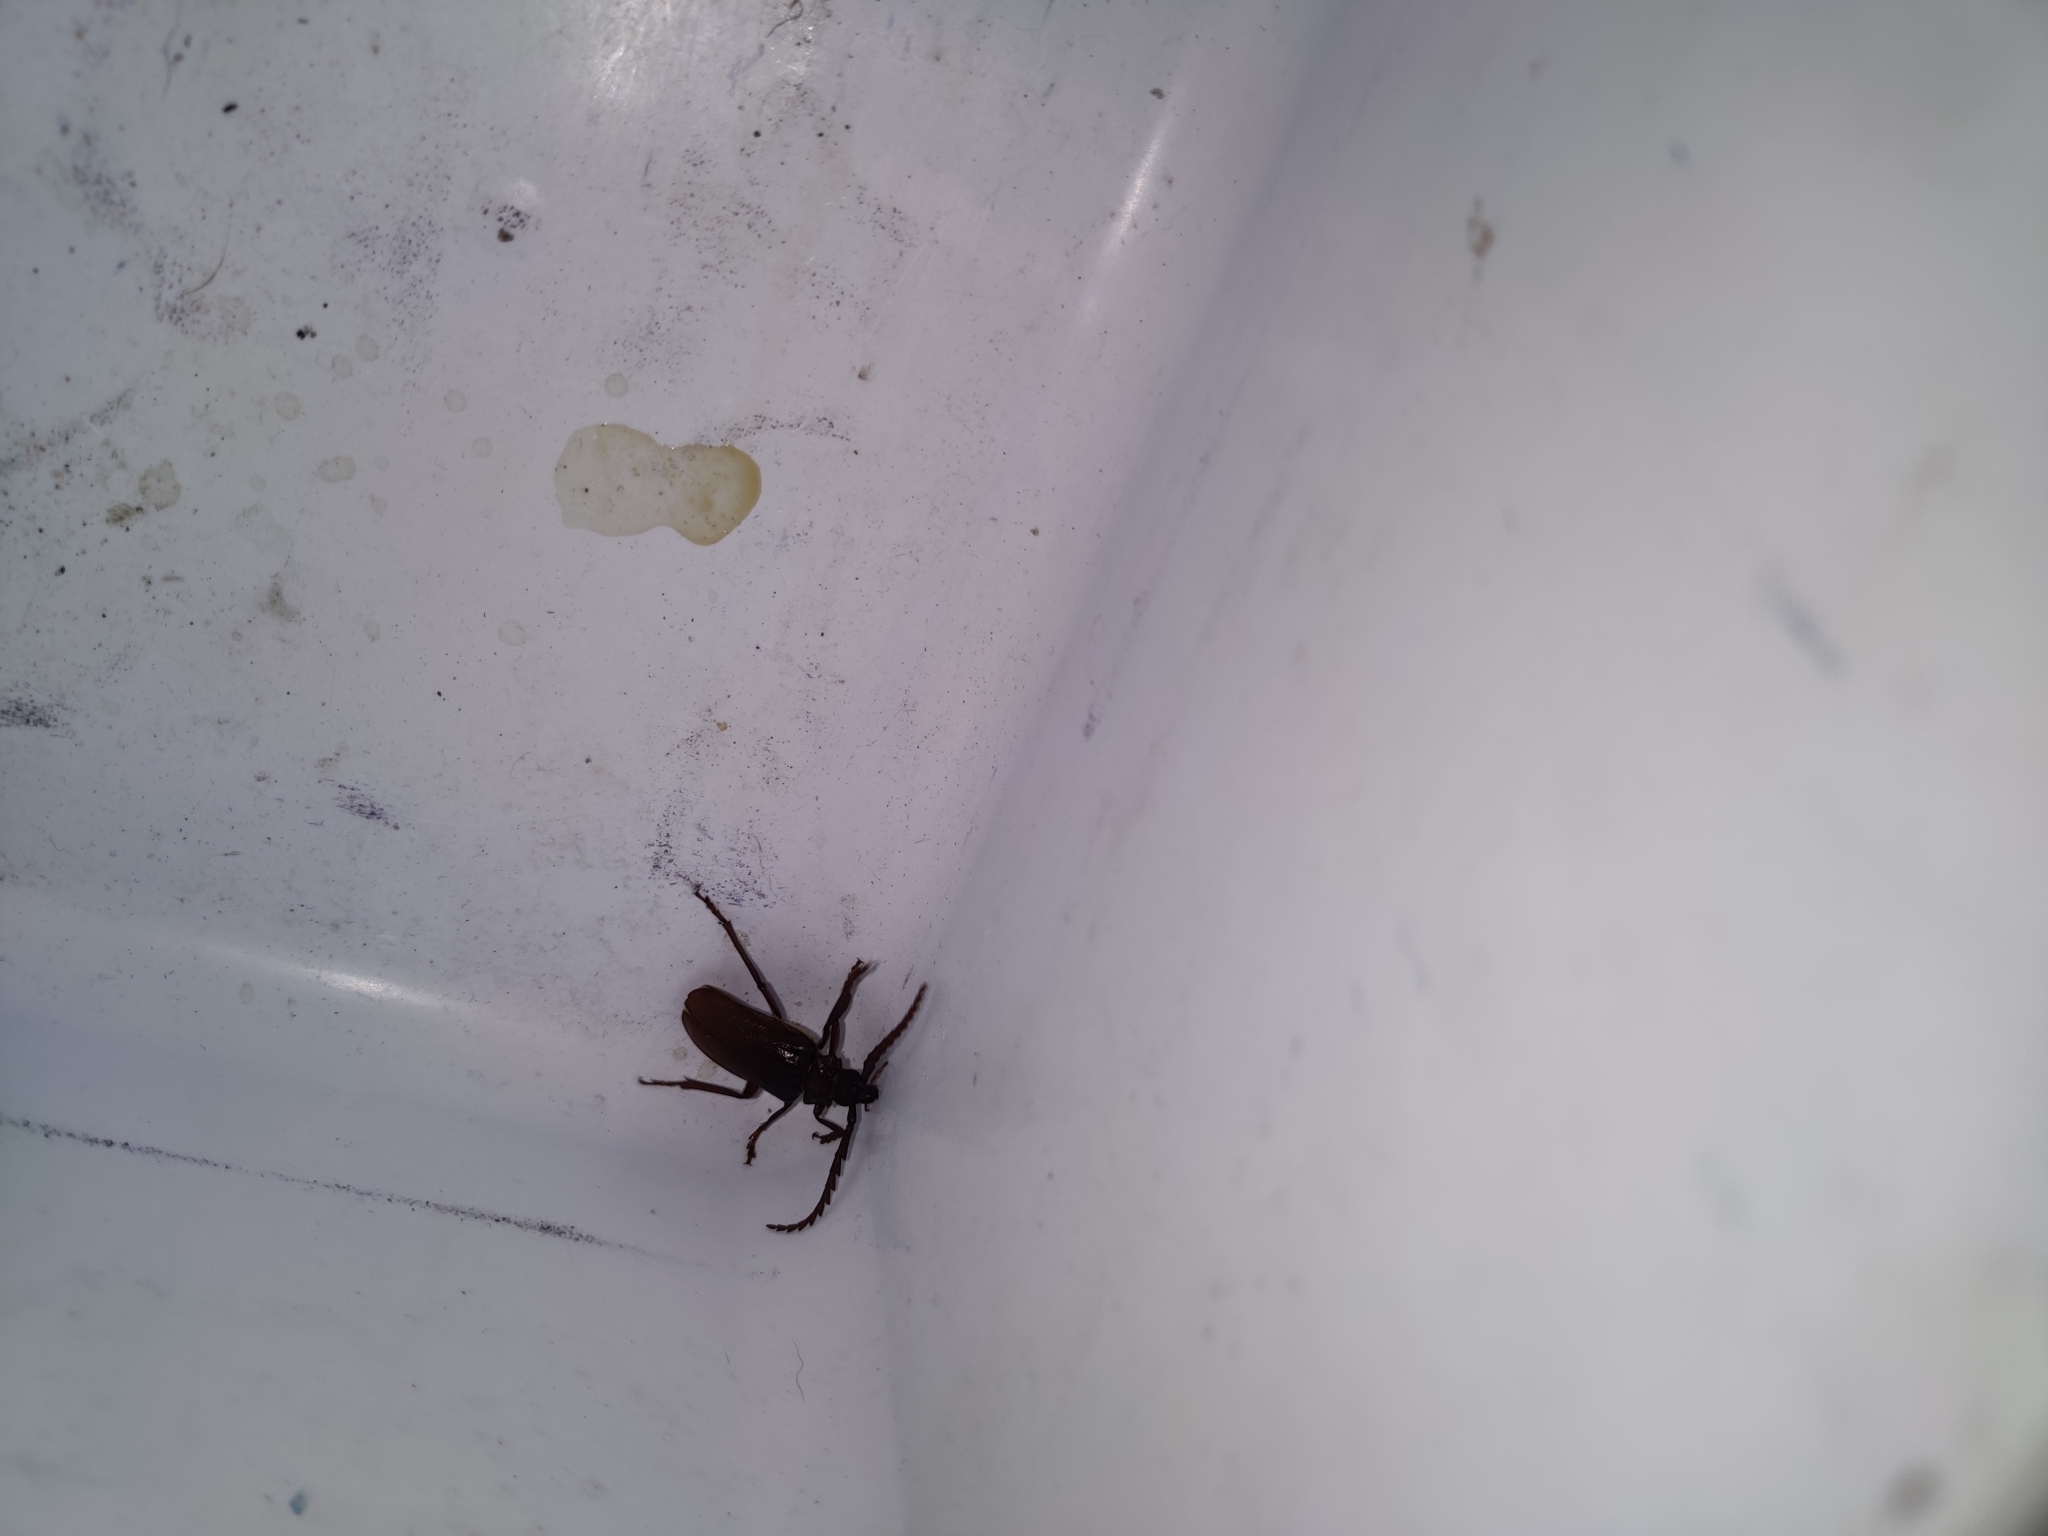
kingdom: Animalia
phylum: Arthropoda
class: Insecta
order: Coleoptera
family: Cerambycidae
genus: Prionus
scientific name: Prionus pocularis
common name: Tooth-necked longhorn beetle
